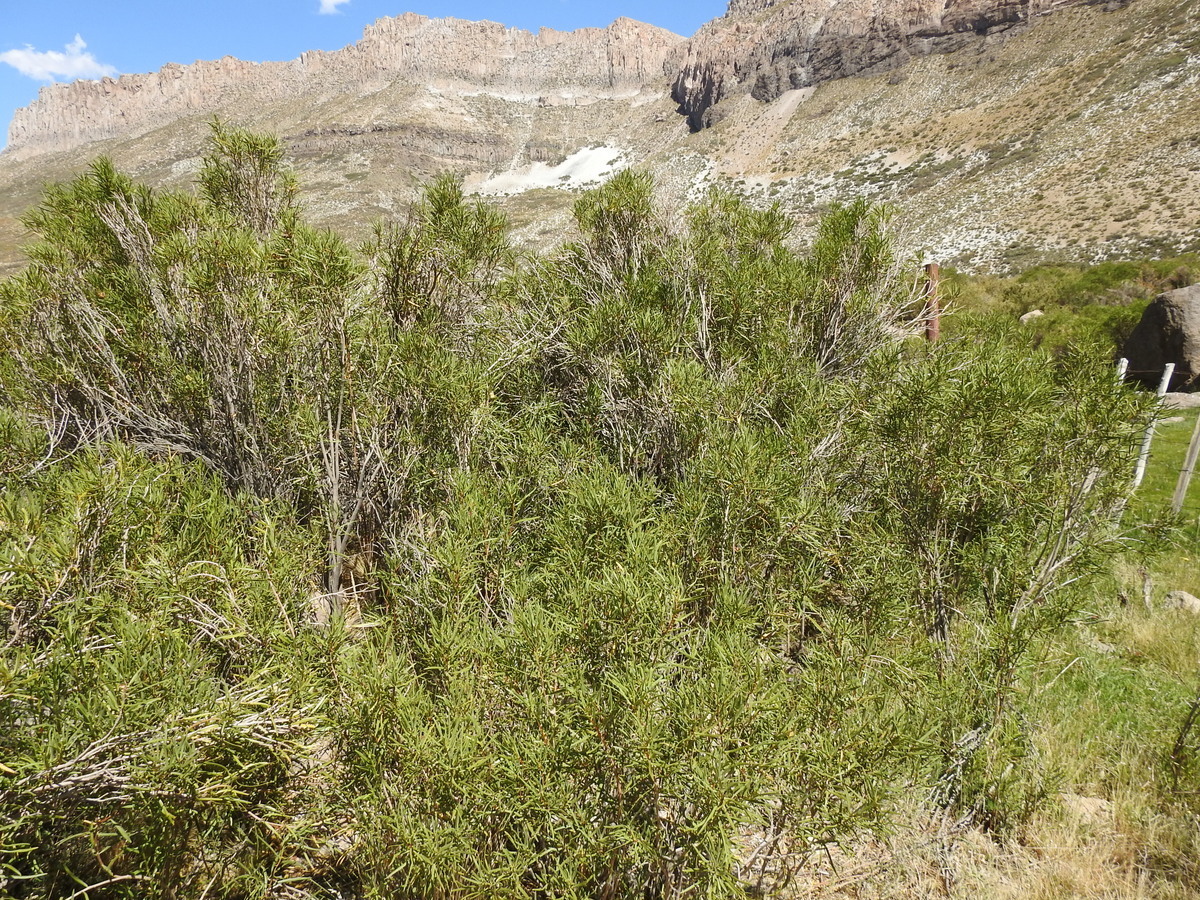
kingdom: Plantae
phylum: Tracheophyta
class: Magnoliopsida
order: Malpighiales
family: Euphorbiaceae
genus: Colliguaja
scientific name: Colliguaja integerrima
